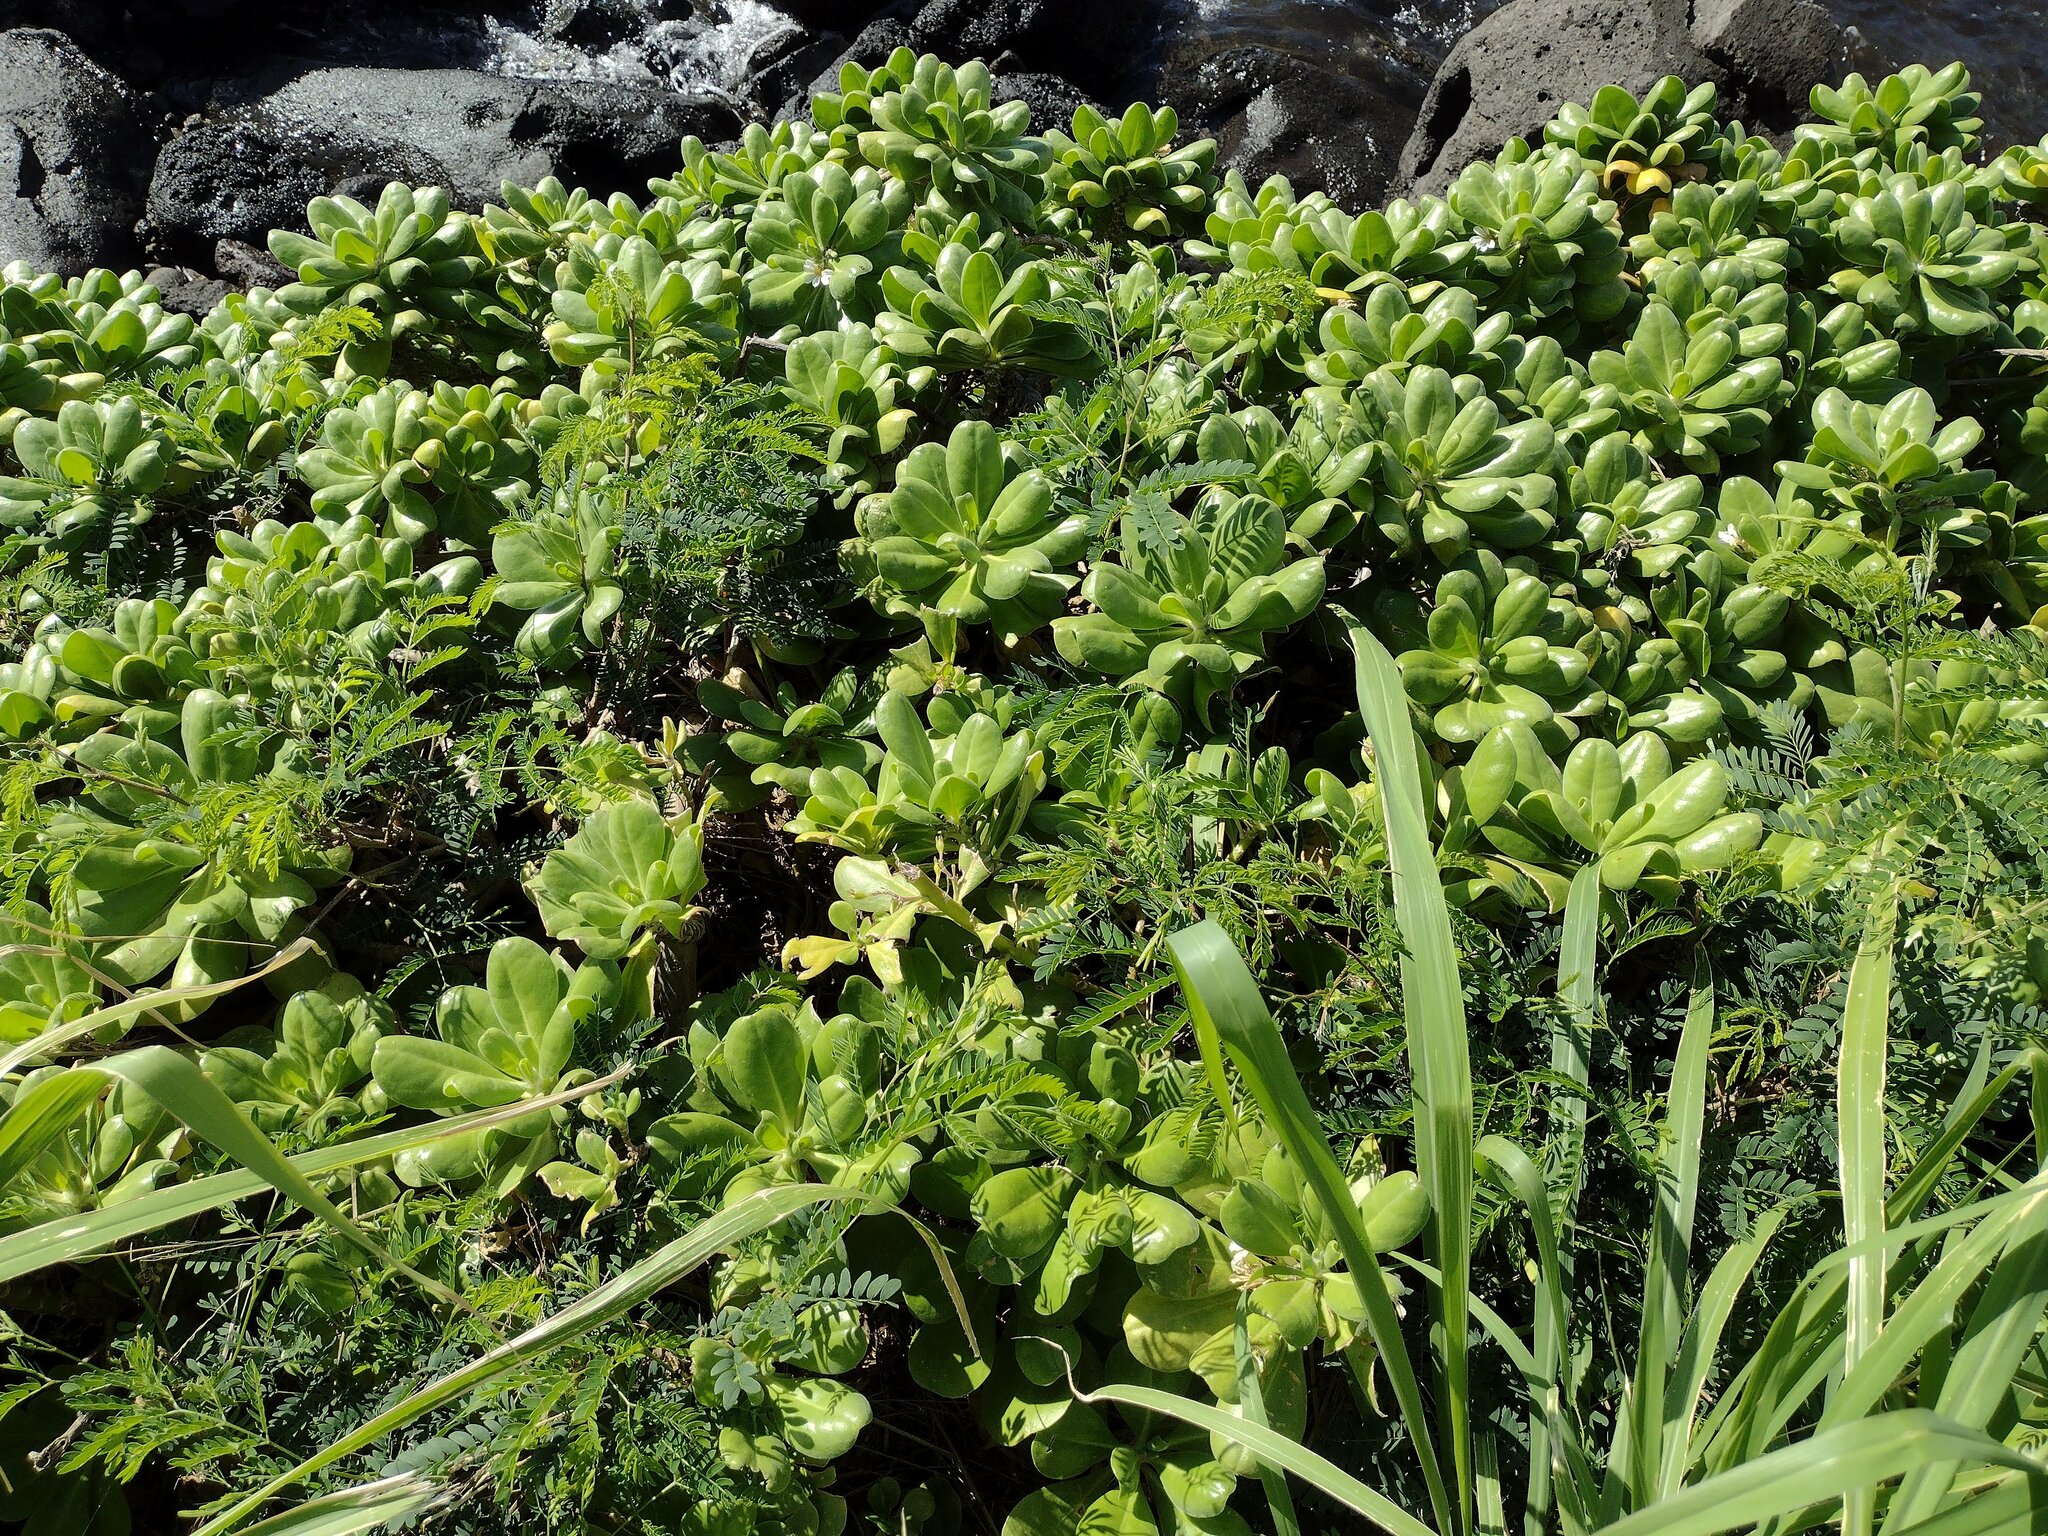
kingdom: Plantae
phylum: Tracheophyta
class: Magnoliopsida
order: Asterales
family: Goodeniaceae
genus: Scaevola
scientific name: Scaevola taccada
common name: Sea lettucetree
